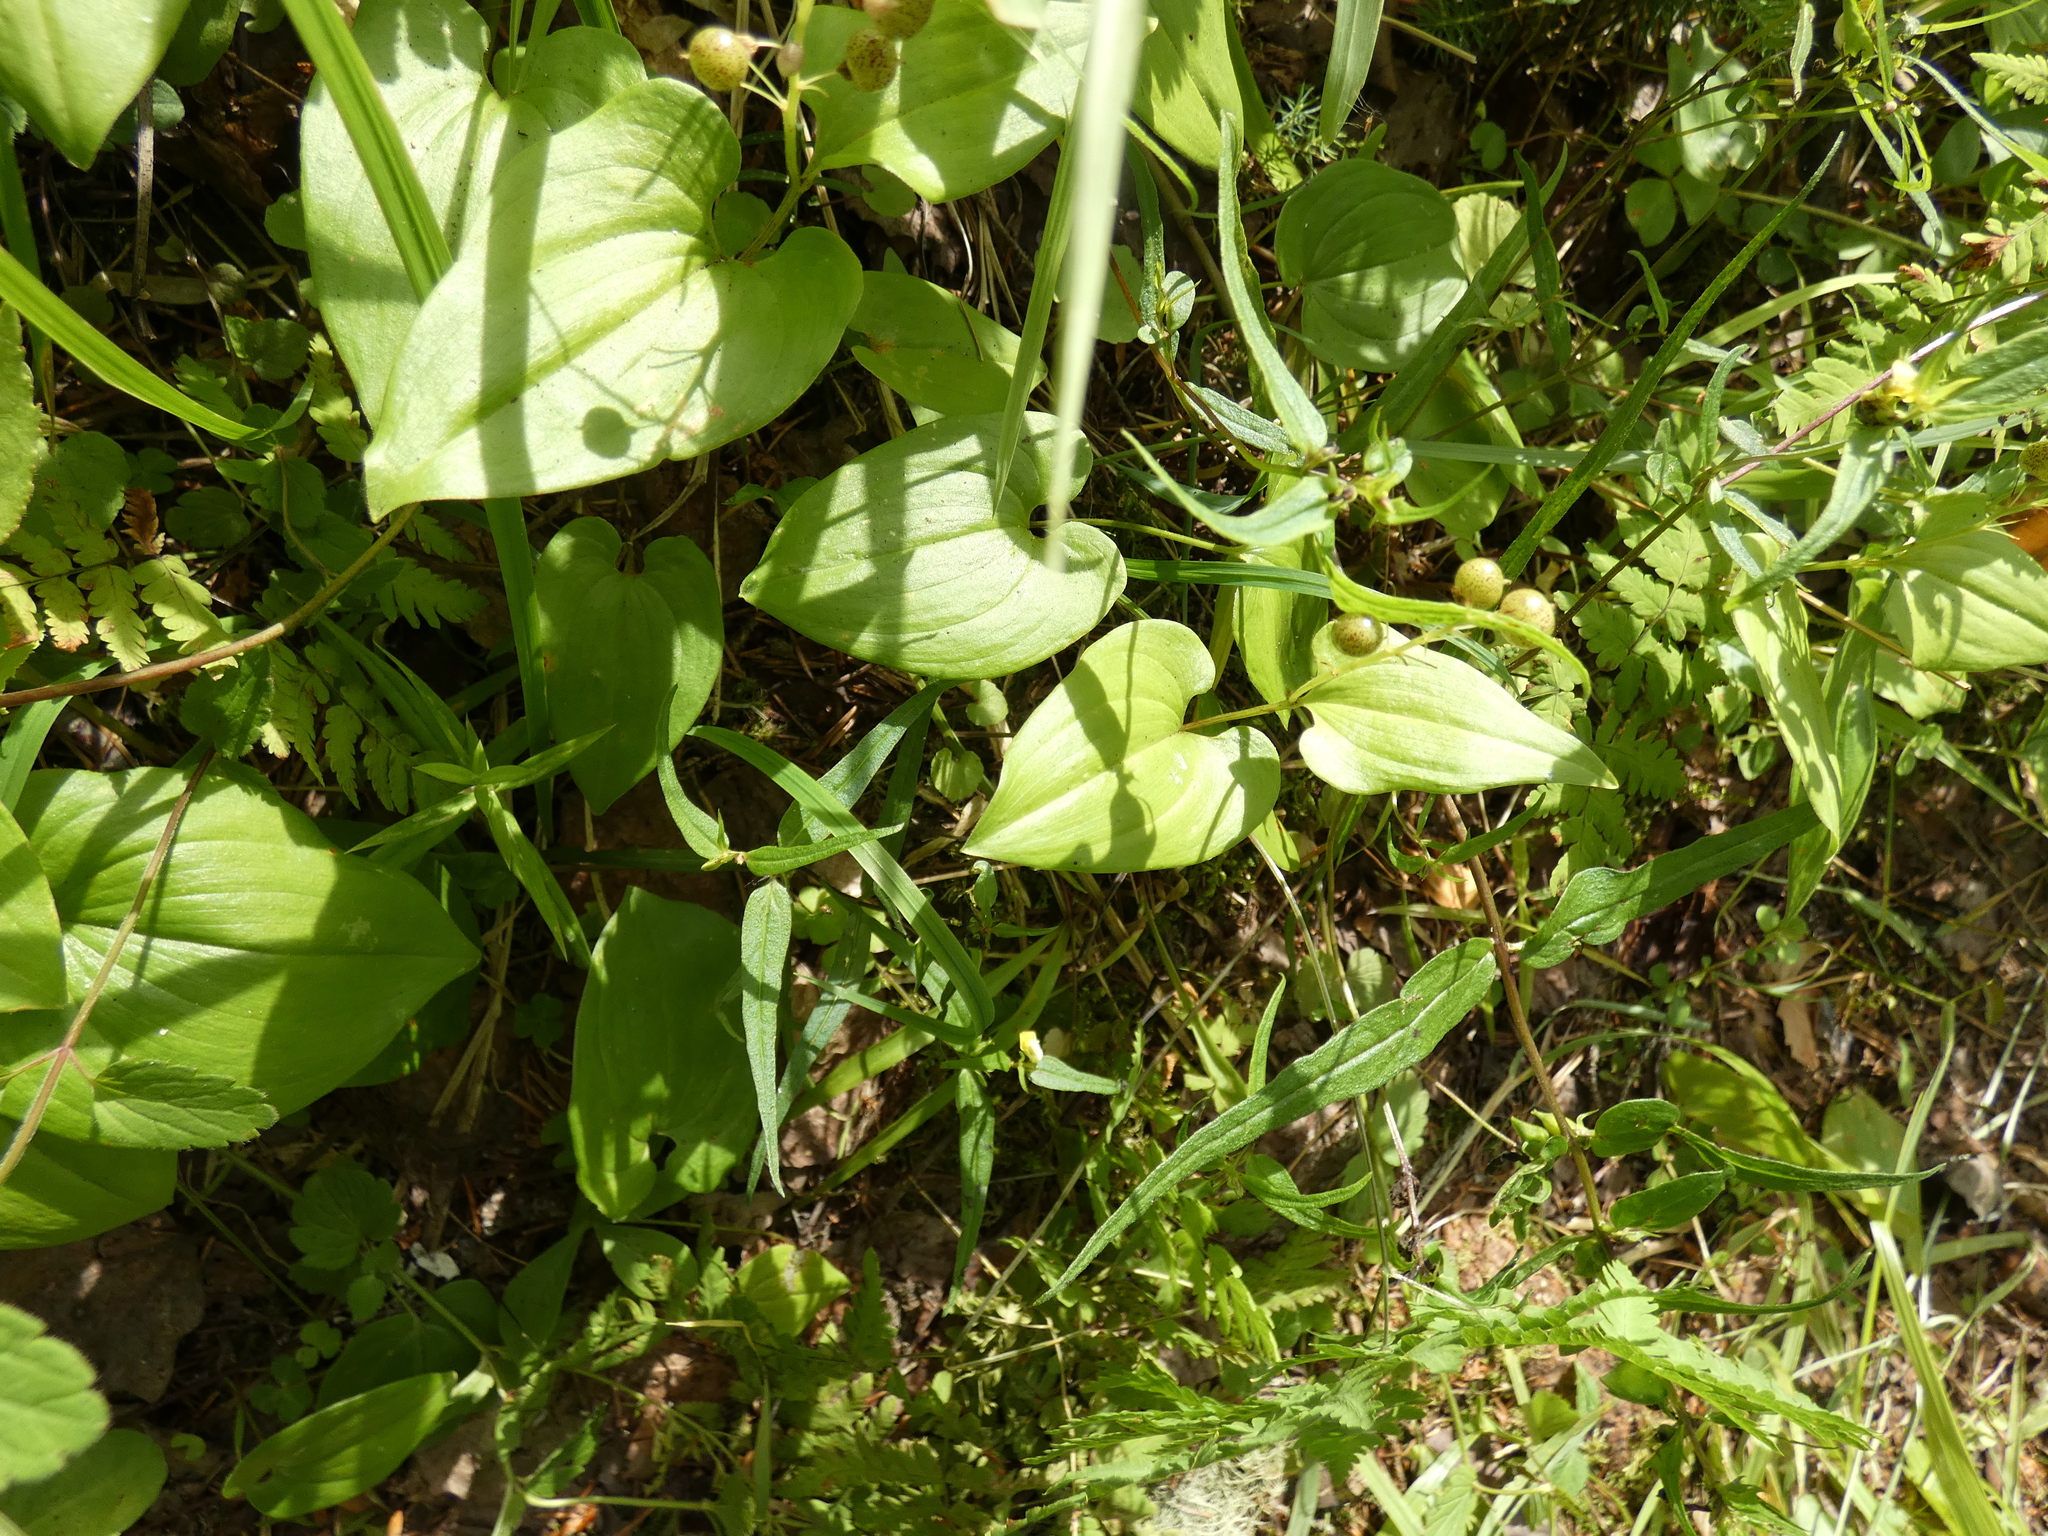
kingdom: Plantae
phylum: Tracheophyta
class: Liliopsida
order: Asparagales
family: Asparagaceae
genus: Maianthemum
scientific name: Maianthemum bifolium
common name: May lily
